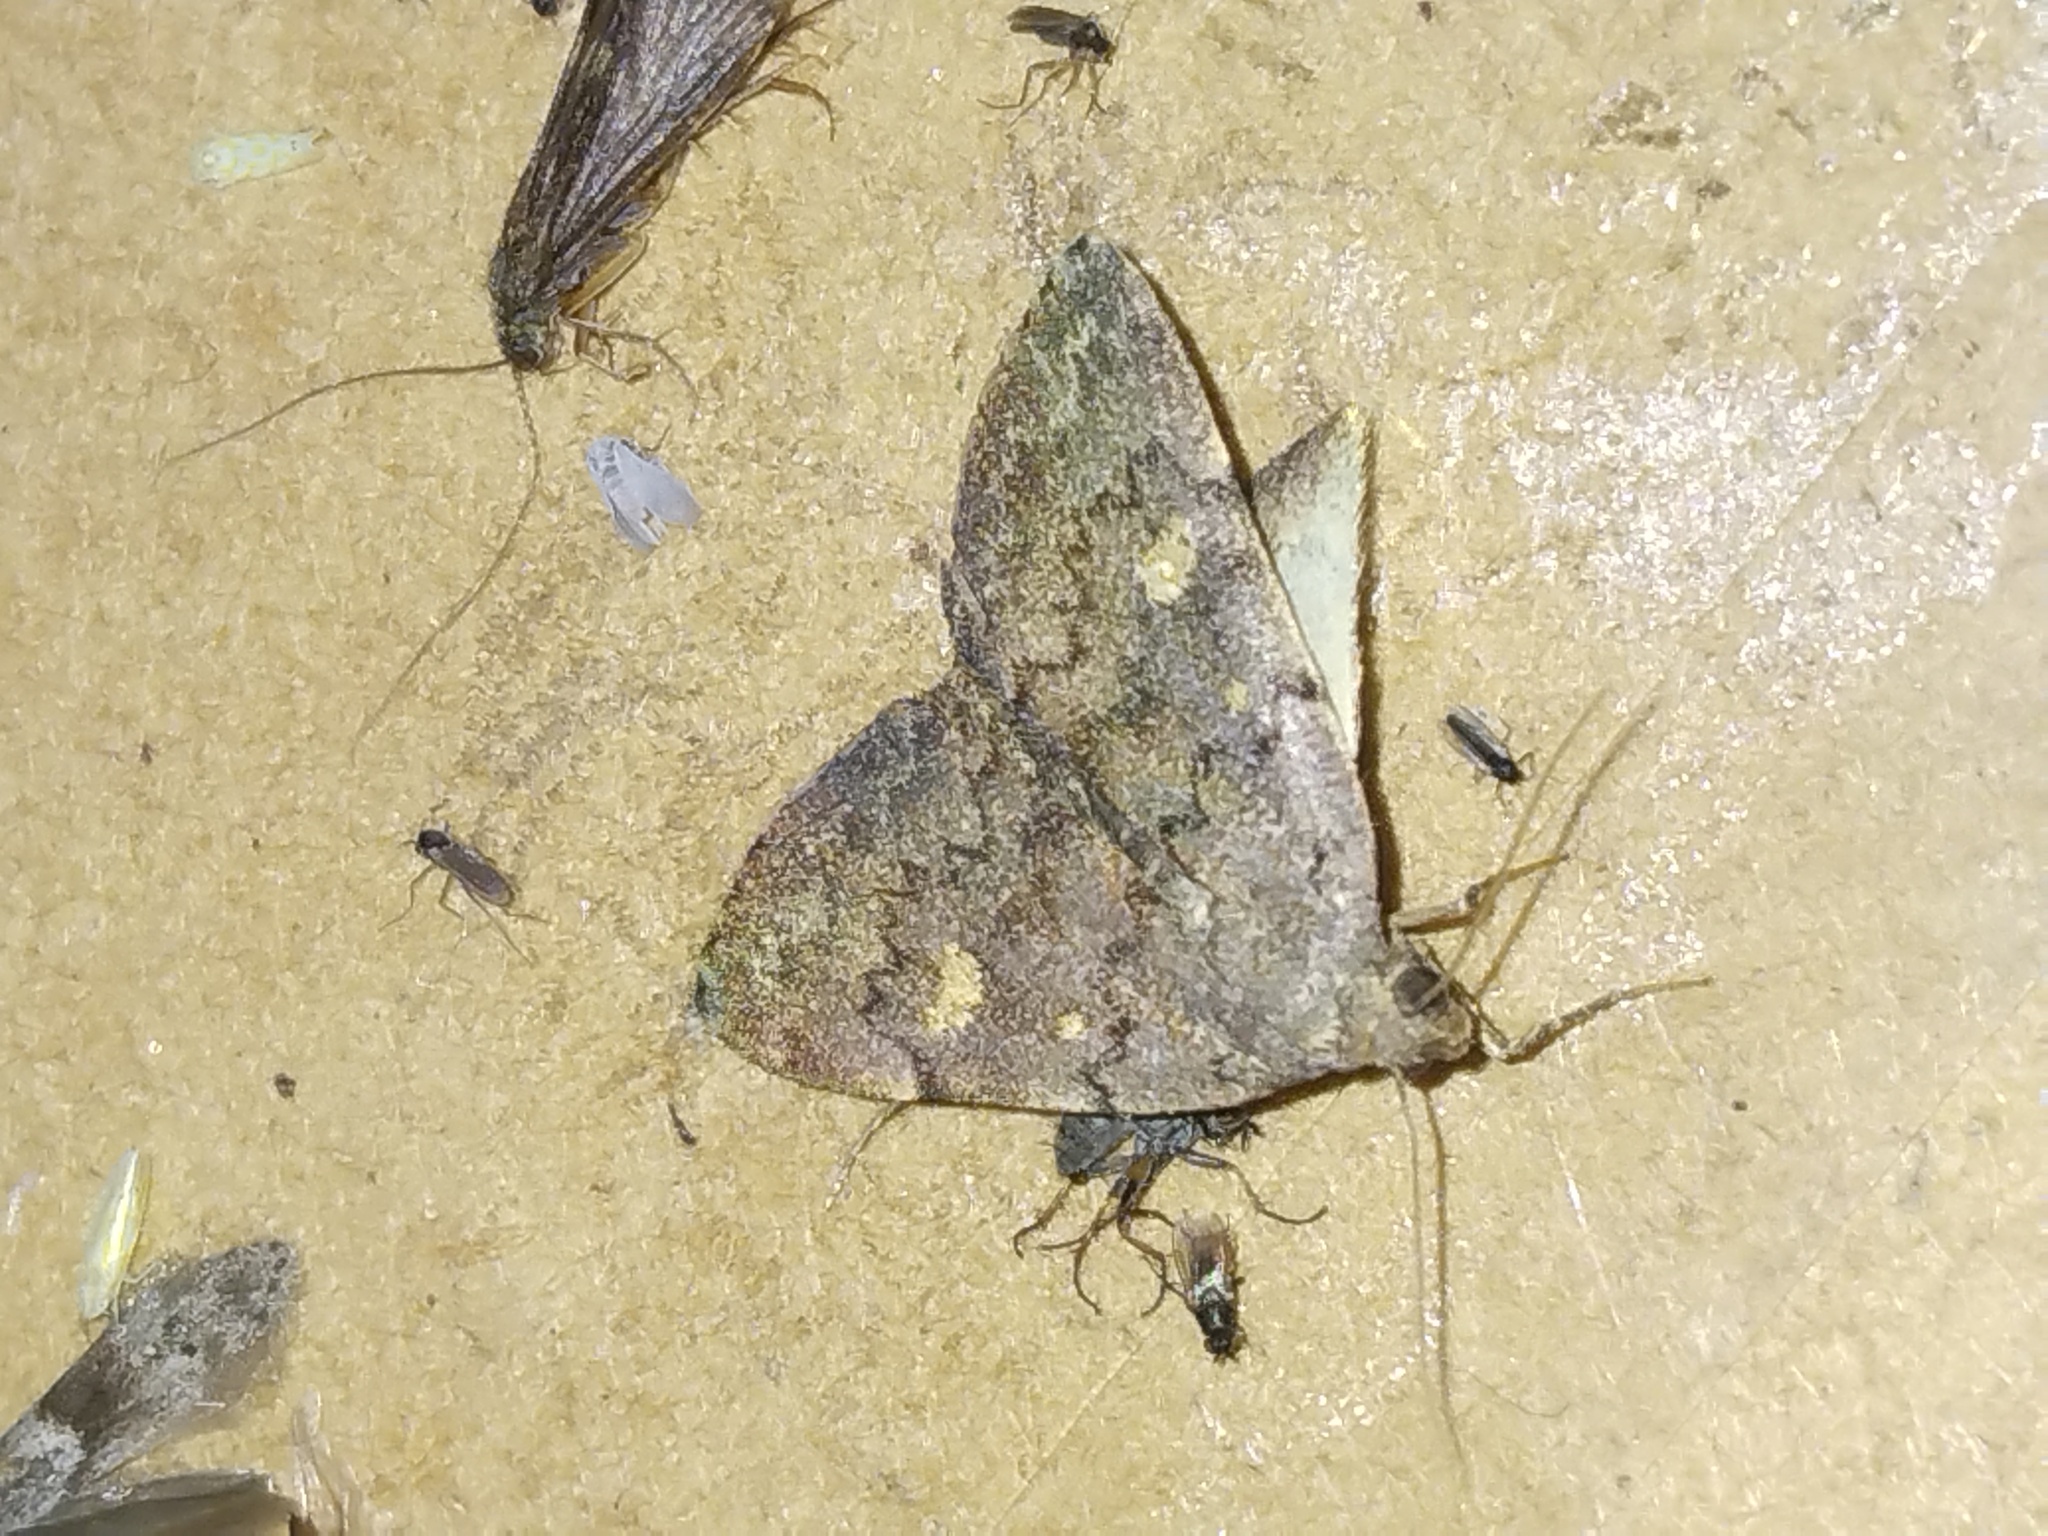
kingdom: Animalia
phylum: Arthropoda
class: Insecta
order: Lepidoptera
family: Erebidae
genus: Idia
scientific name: Idia aemula
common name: Common idia moth
